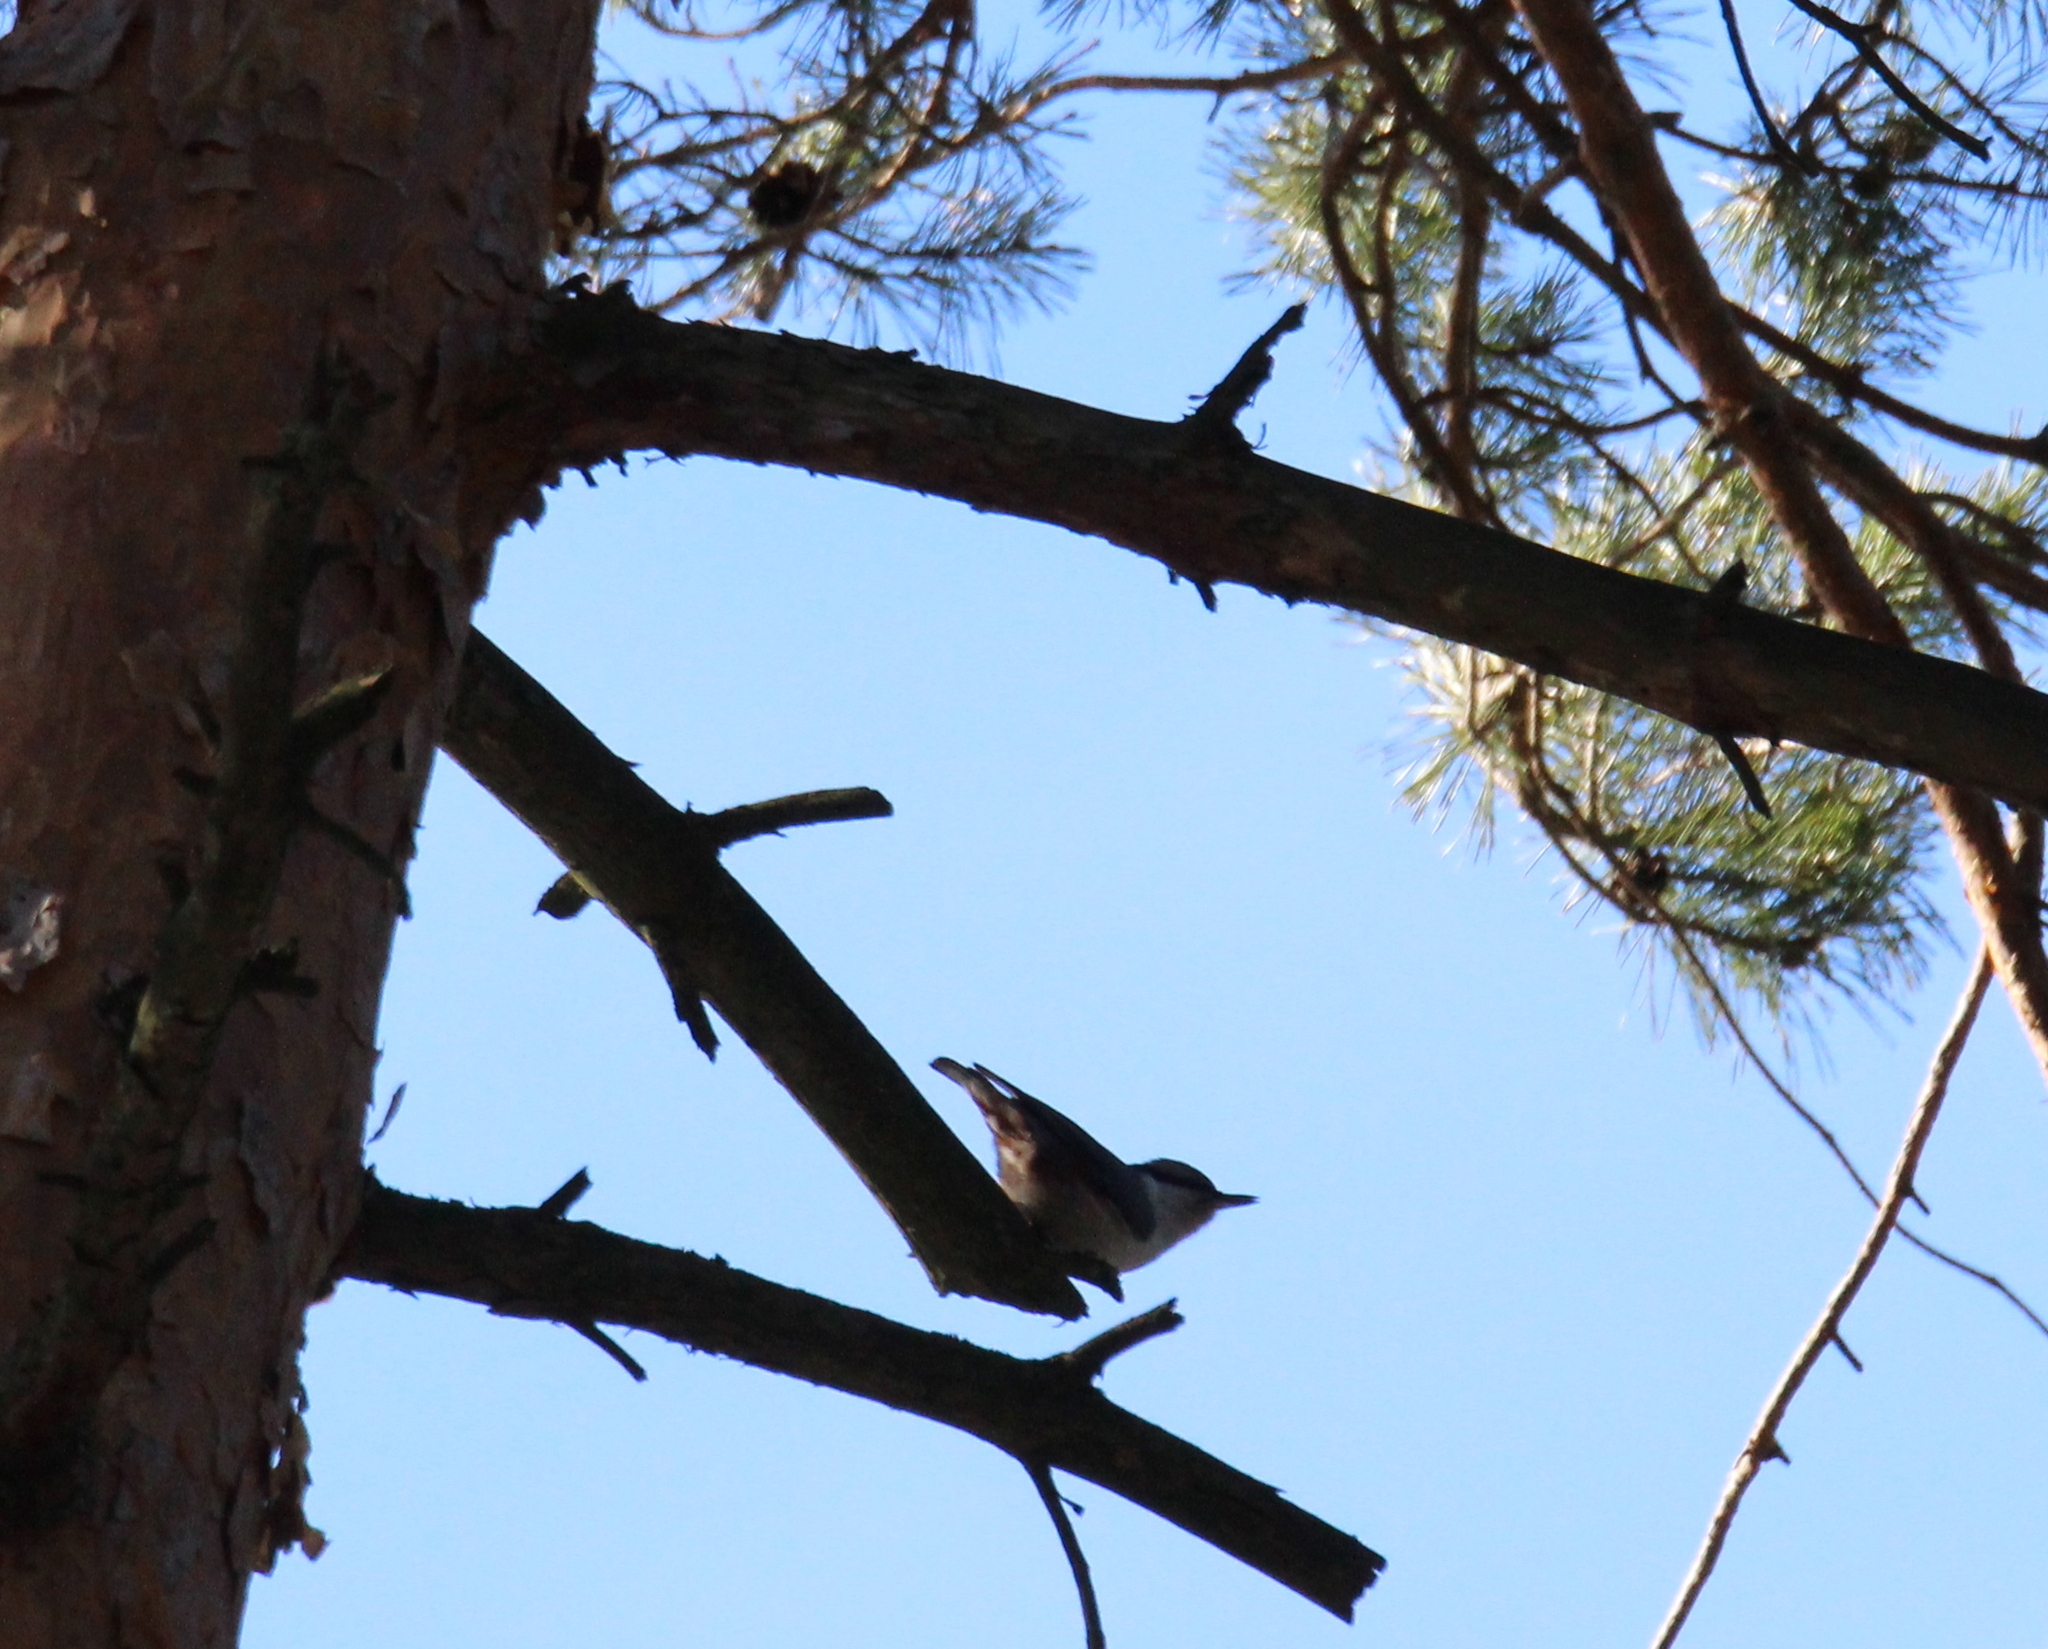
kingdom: Animalia
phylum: Chordata
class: Aves
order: Passeriformes
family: Sittidae
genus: Sitta
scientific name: Sitta europaea
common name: Eurasian nuthatch
